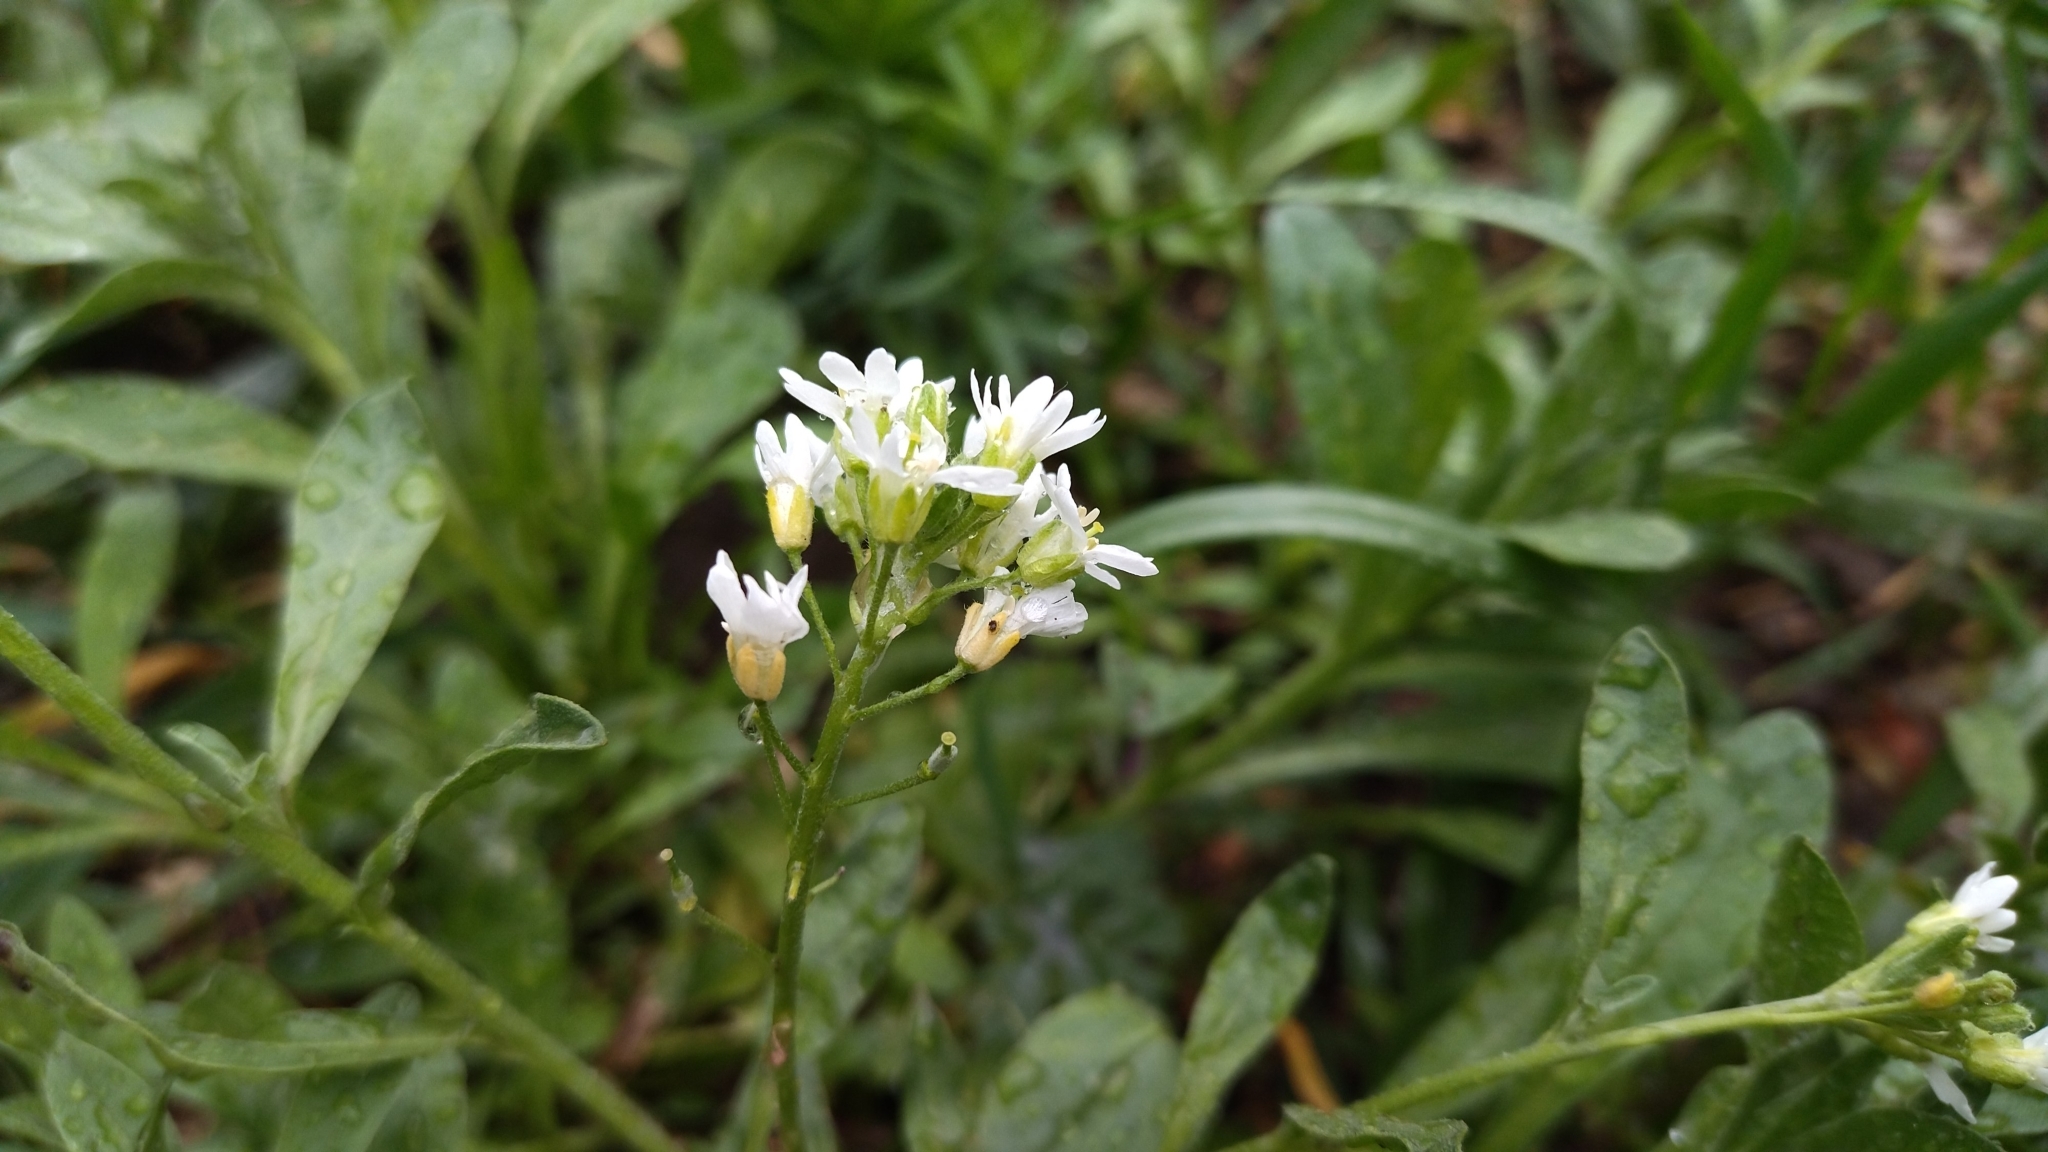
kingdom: Plantae
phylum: Tracheophyta
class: Magnoliopsida
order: Brassicales
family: Brassicaceae
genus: Berteroa
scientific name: Berteroa incana
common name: Hoary alison
